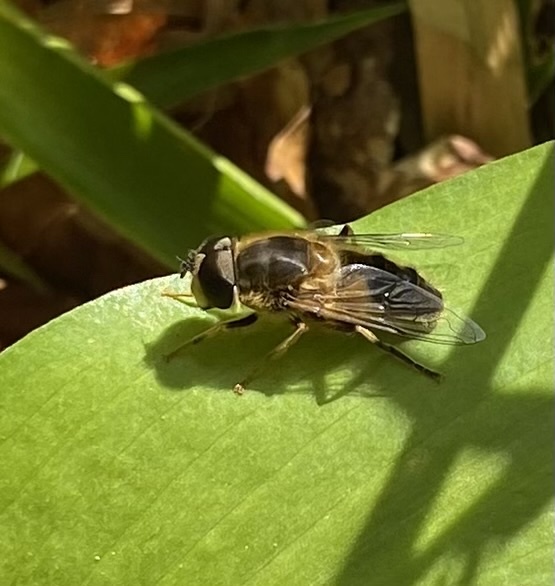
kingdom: Animalia
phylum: Arthropoda
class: Insecta
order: Diptera
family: Syrphidae
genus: Eristalis
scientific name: Eristalis pertinax
